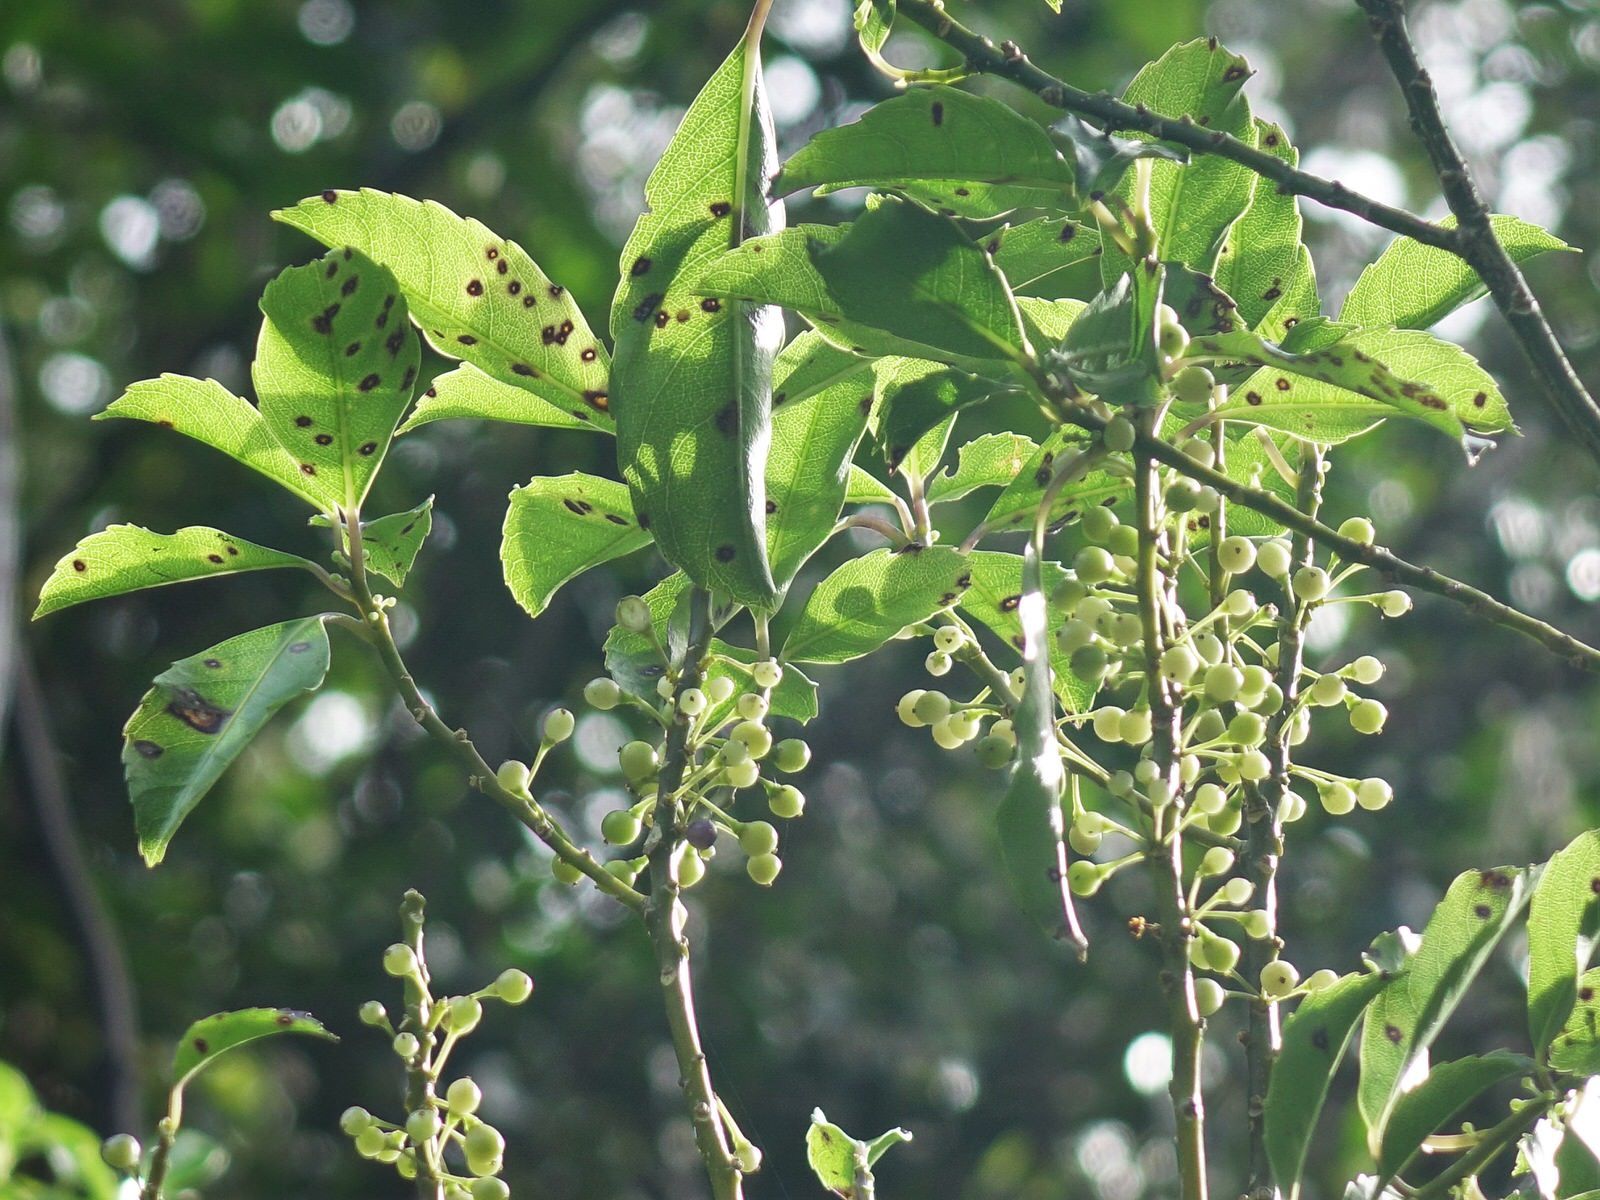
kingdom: Plantae
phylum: Tracheophyta
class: Magnoliopsida
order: Malpighiales
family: Violaceae
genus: Melicytus
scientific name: Melicytus macrophyllus
